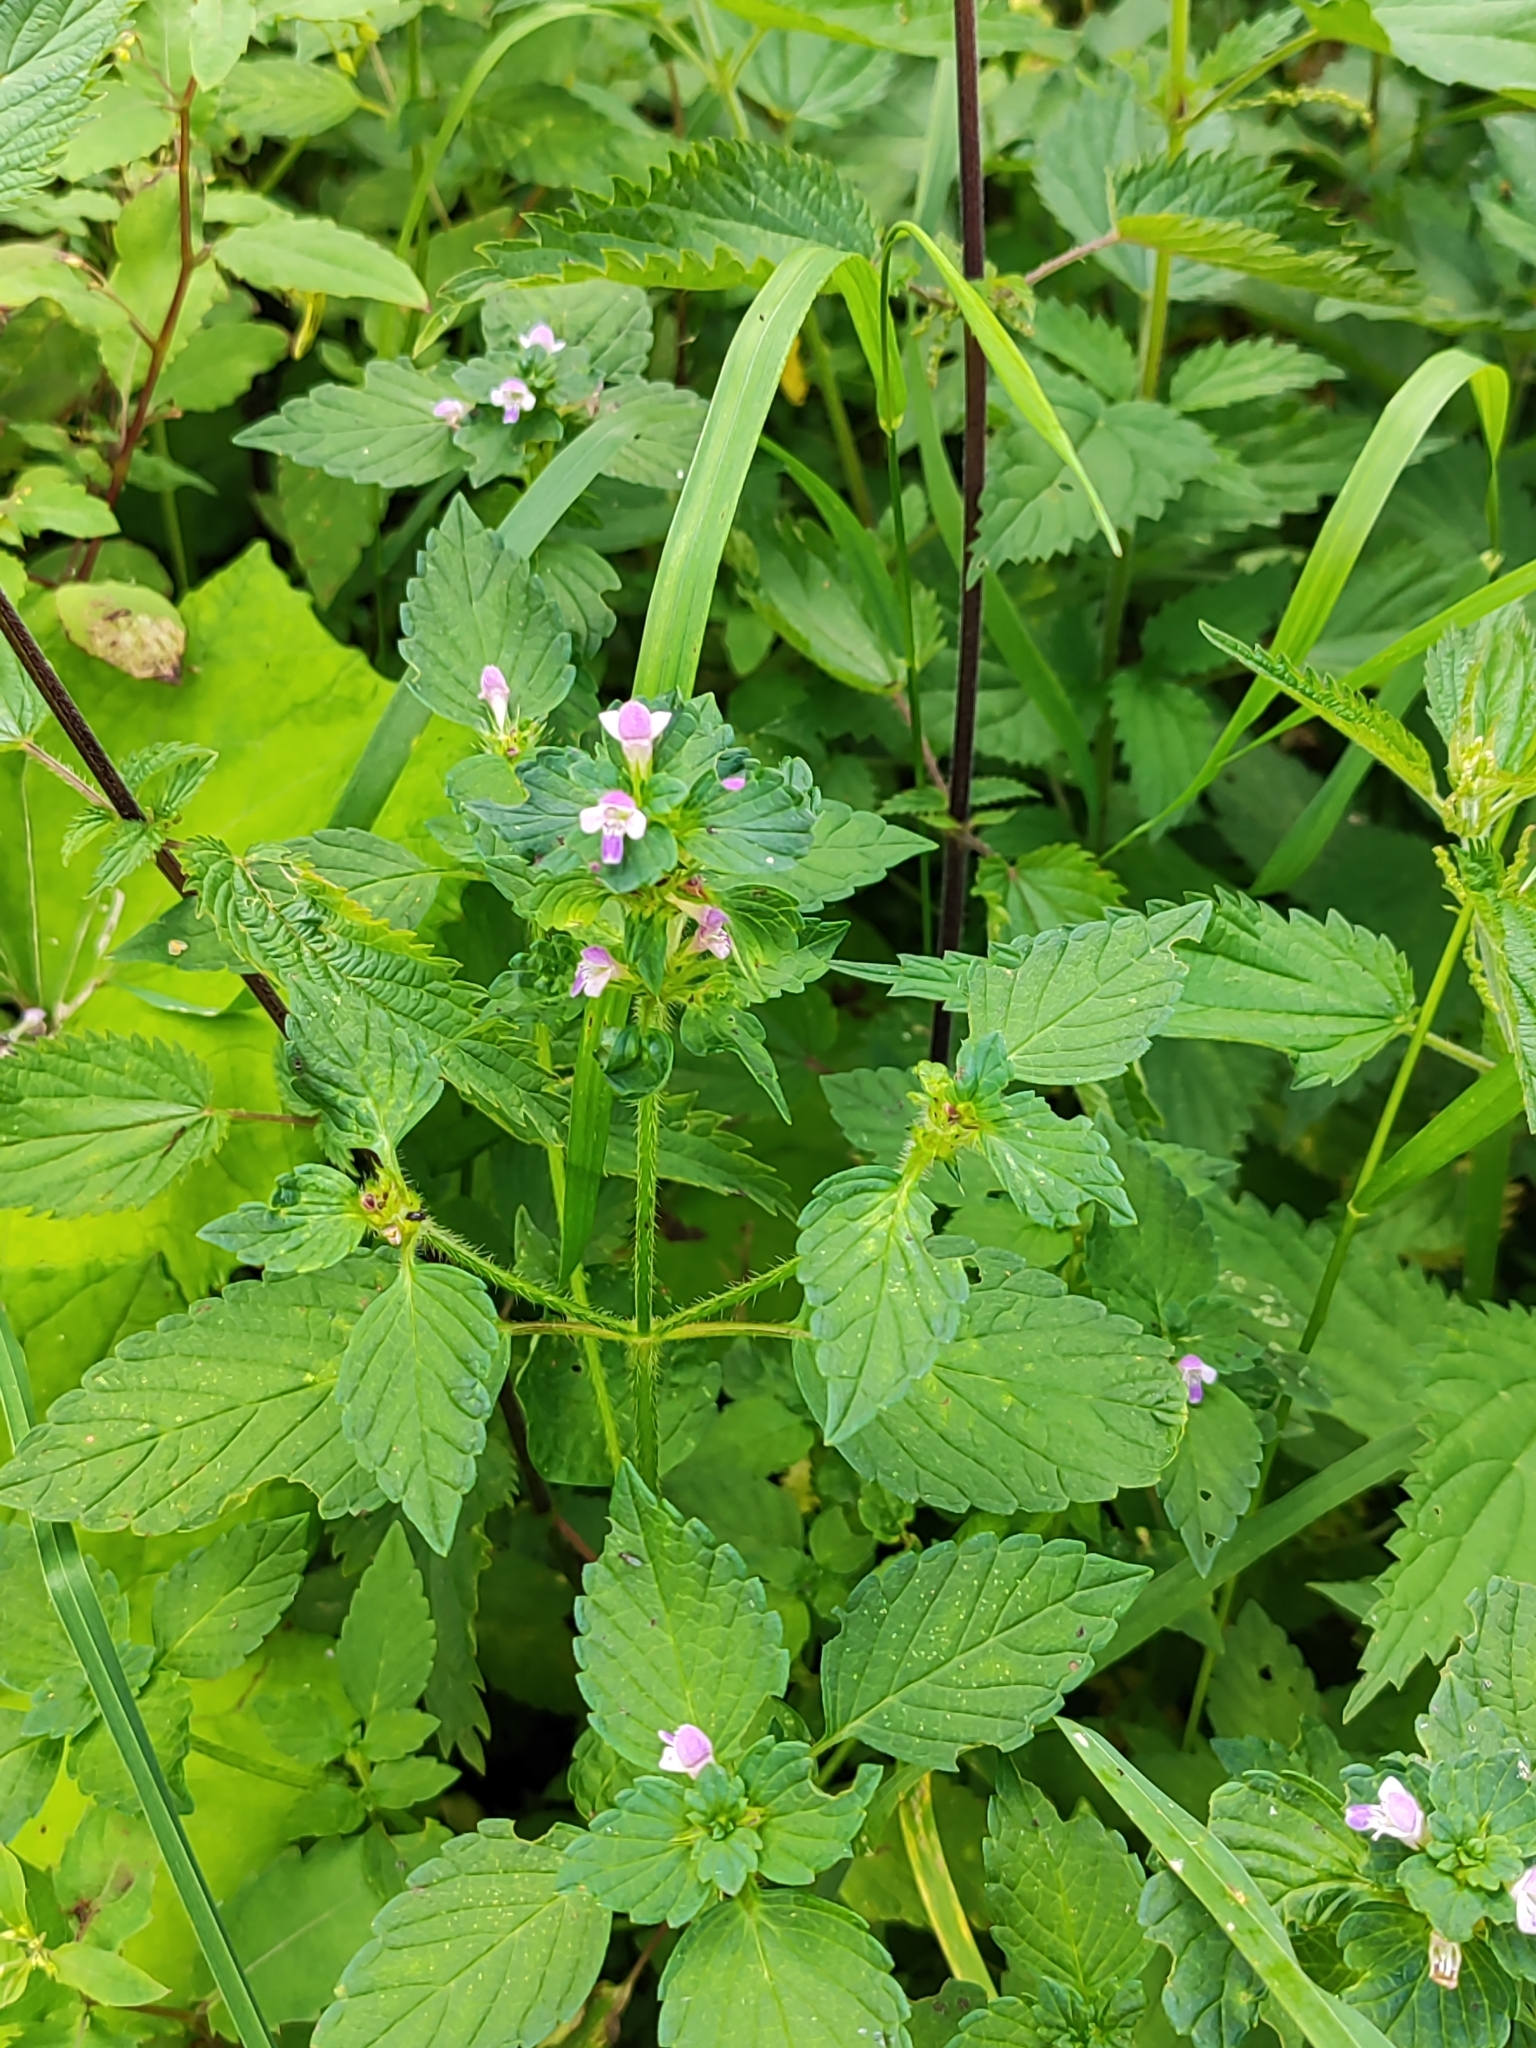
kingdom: Plantae
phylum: Tracheophyta
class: Magnoliopsida
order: Lamiales
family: Lamiaceae
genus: Galeopsis
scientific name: Galeopsis bifida
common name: Bifid hemp-nettle
